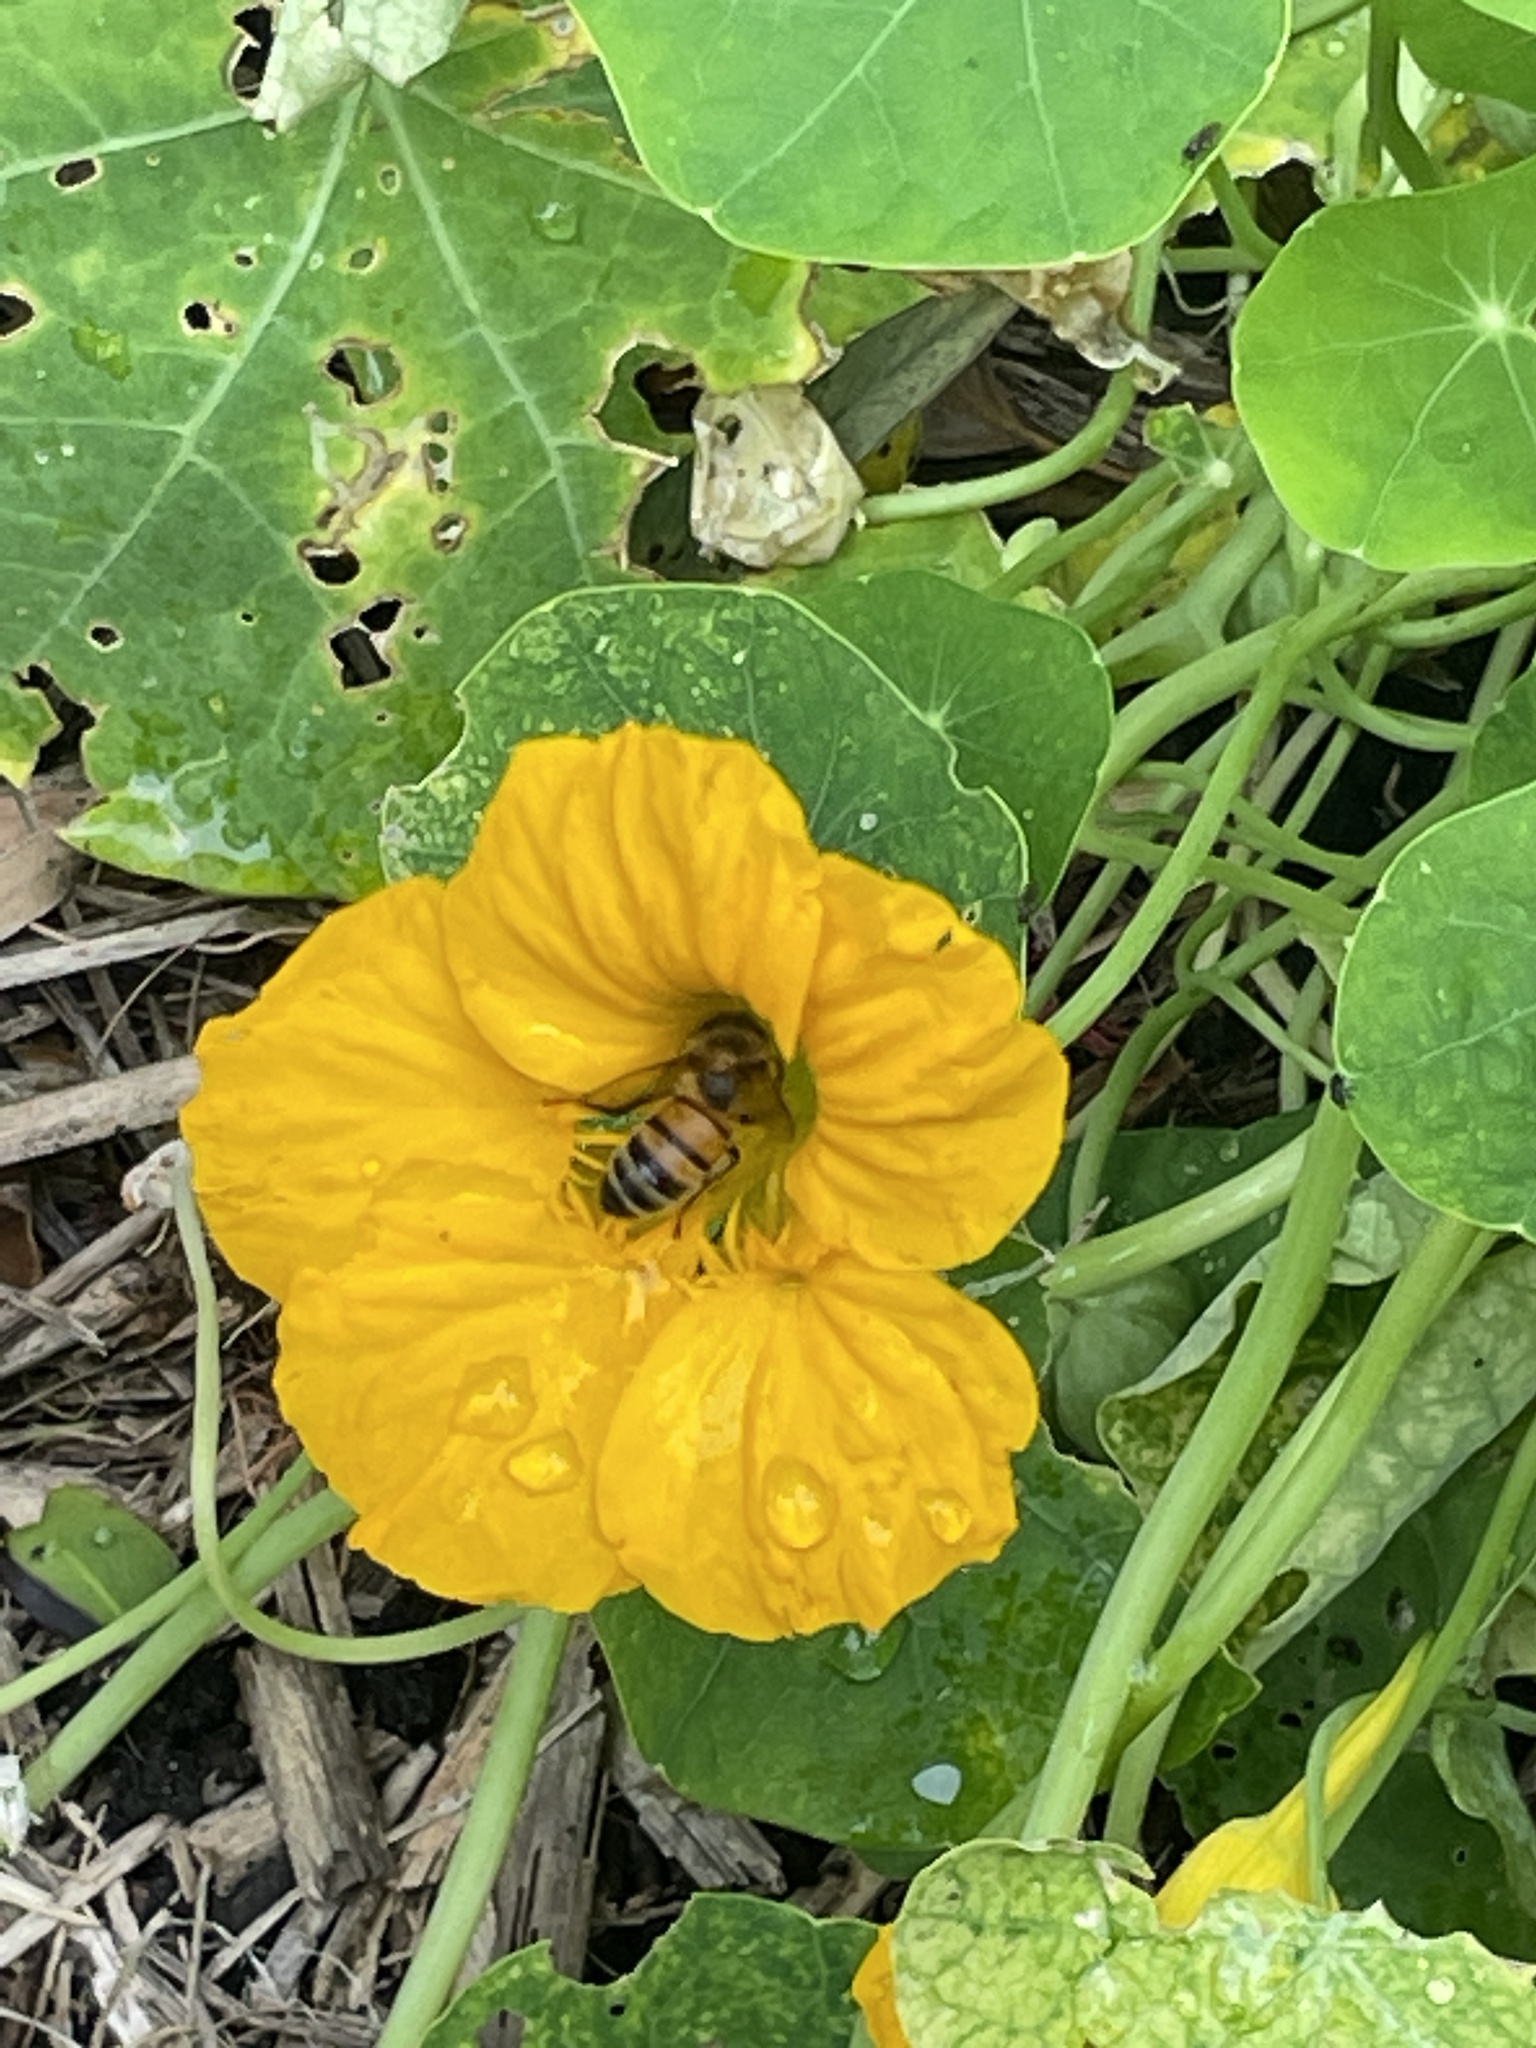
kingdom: Animalia
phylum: Arthropoda
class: Insecta
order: Hymenoptera
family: Apidae
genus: Apis
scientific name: Apis mellifera
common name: Honey bee
